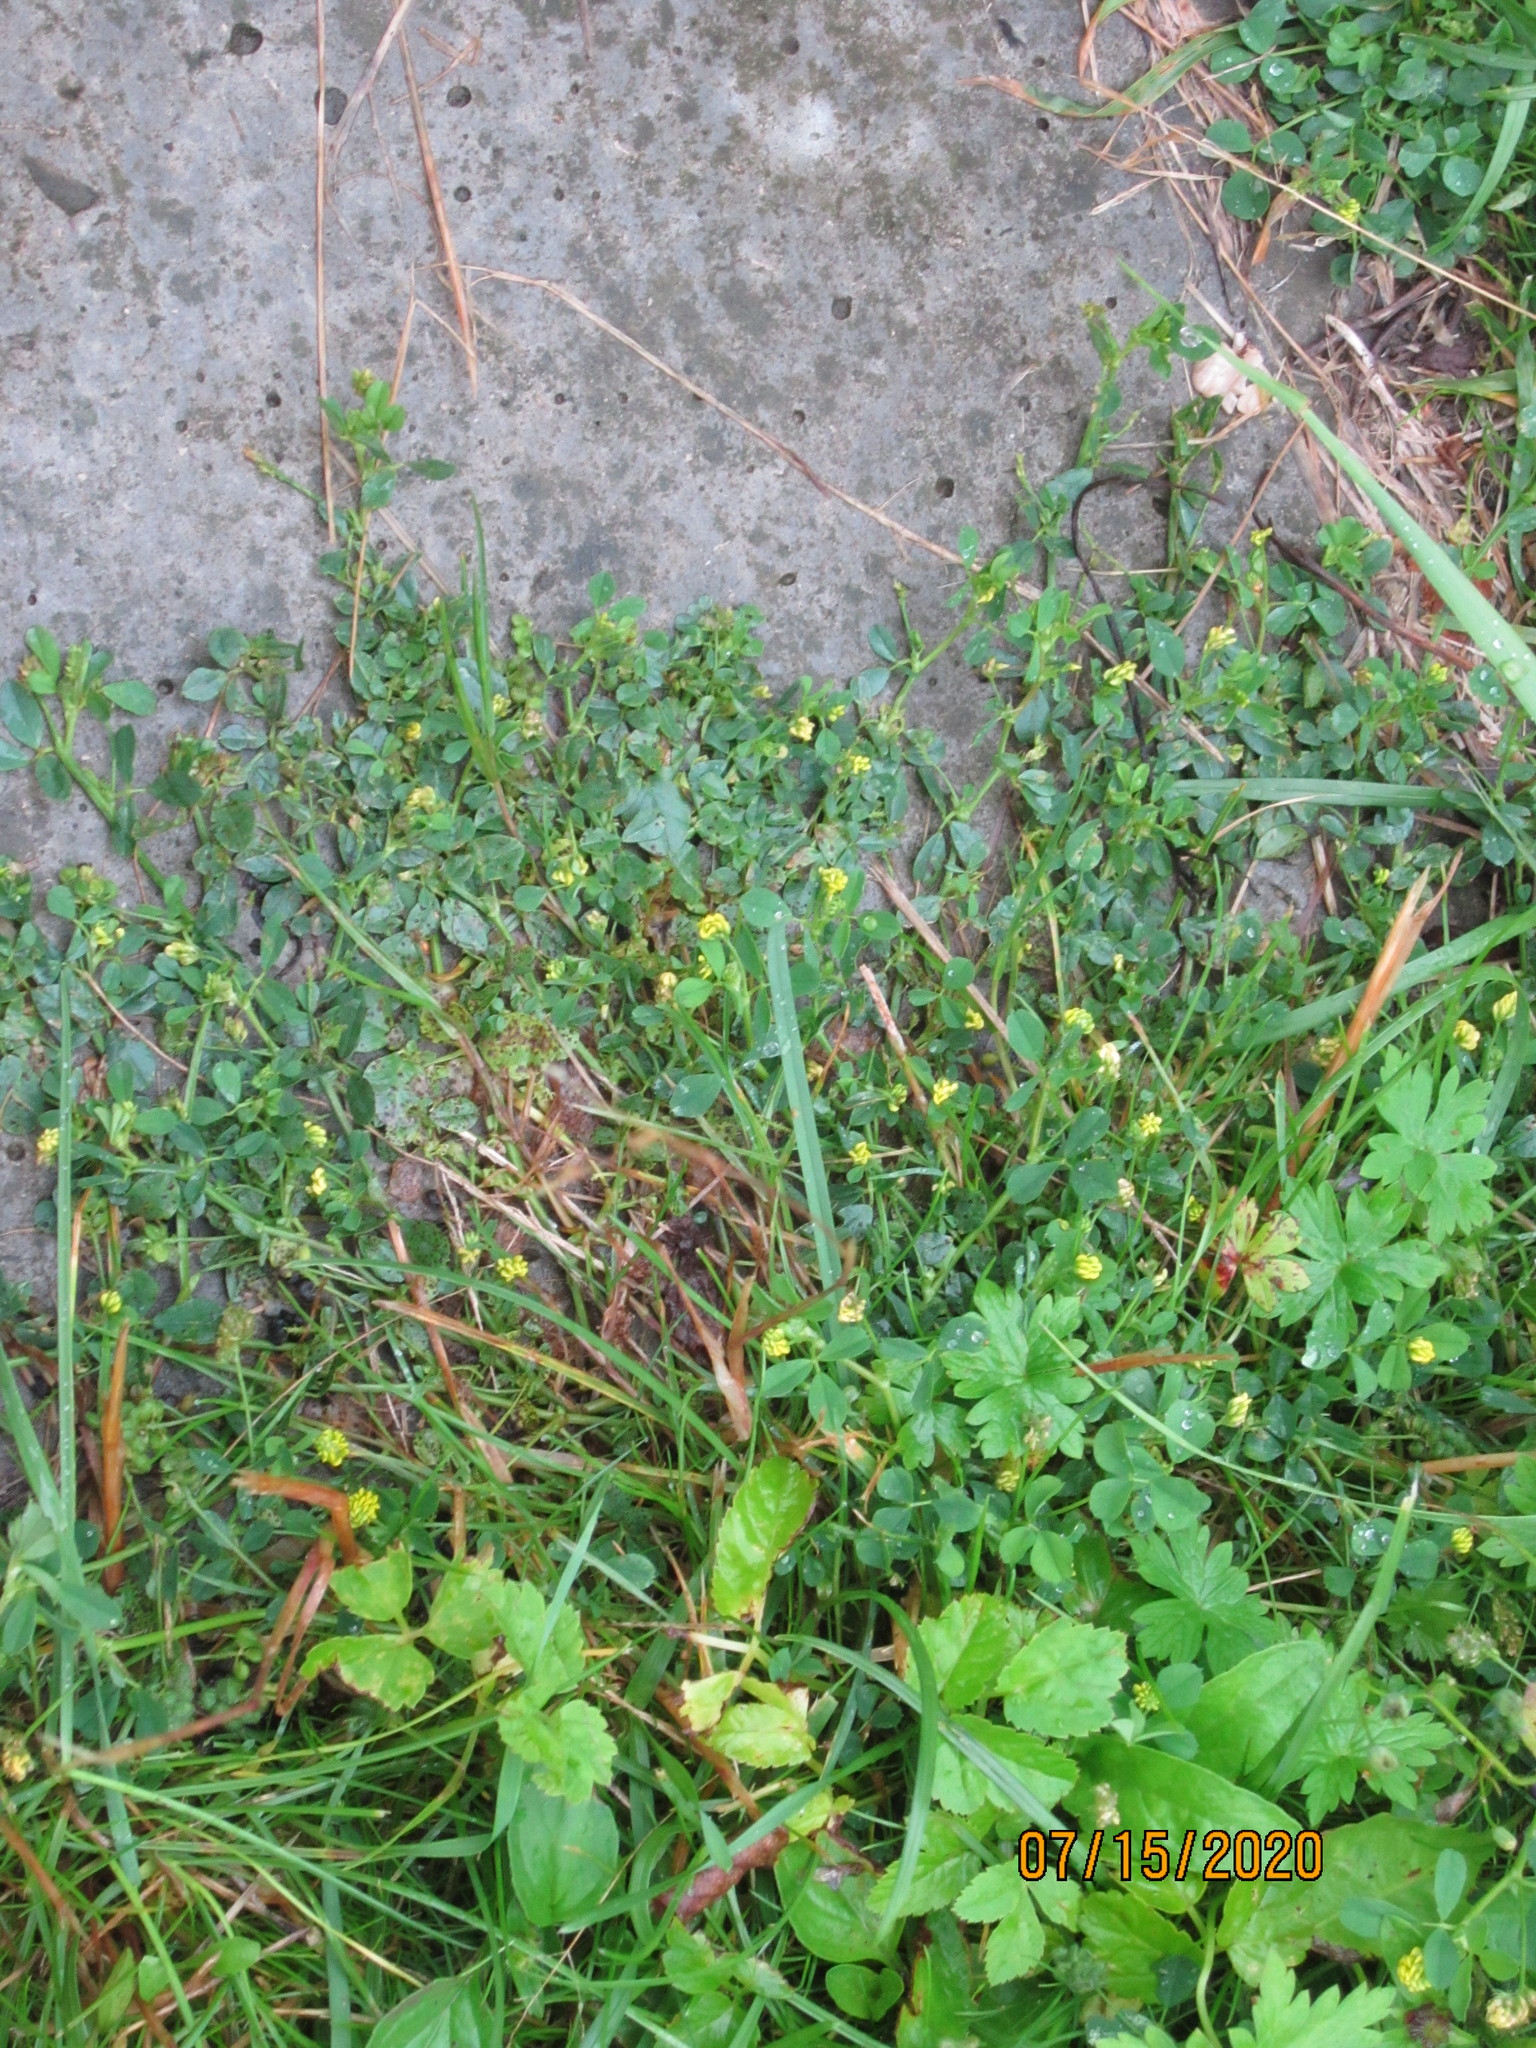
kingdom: Plantae
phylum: Tracheophyta
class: Magnoliopsida
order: Fabales
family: Fabaceae
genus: Medicago
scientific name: Medicago lupulina
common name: Black medick
